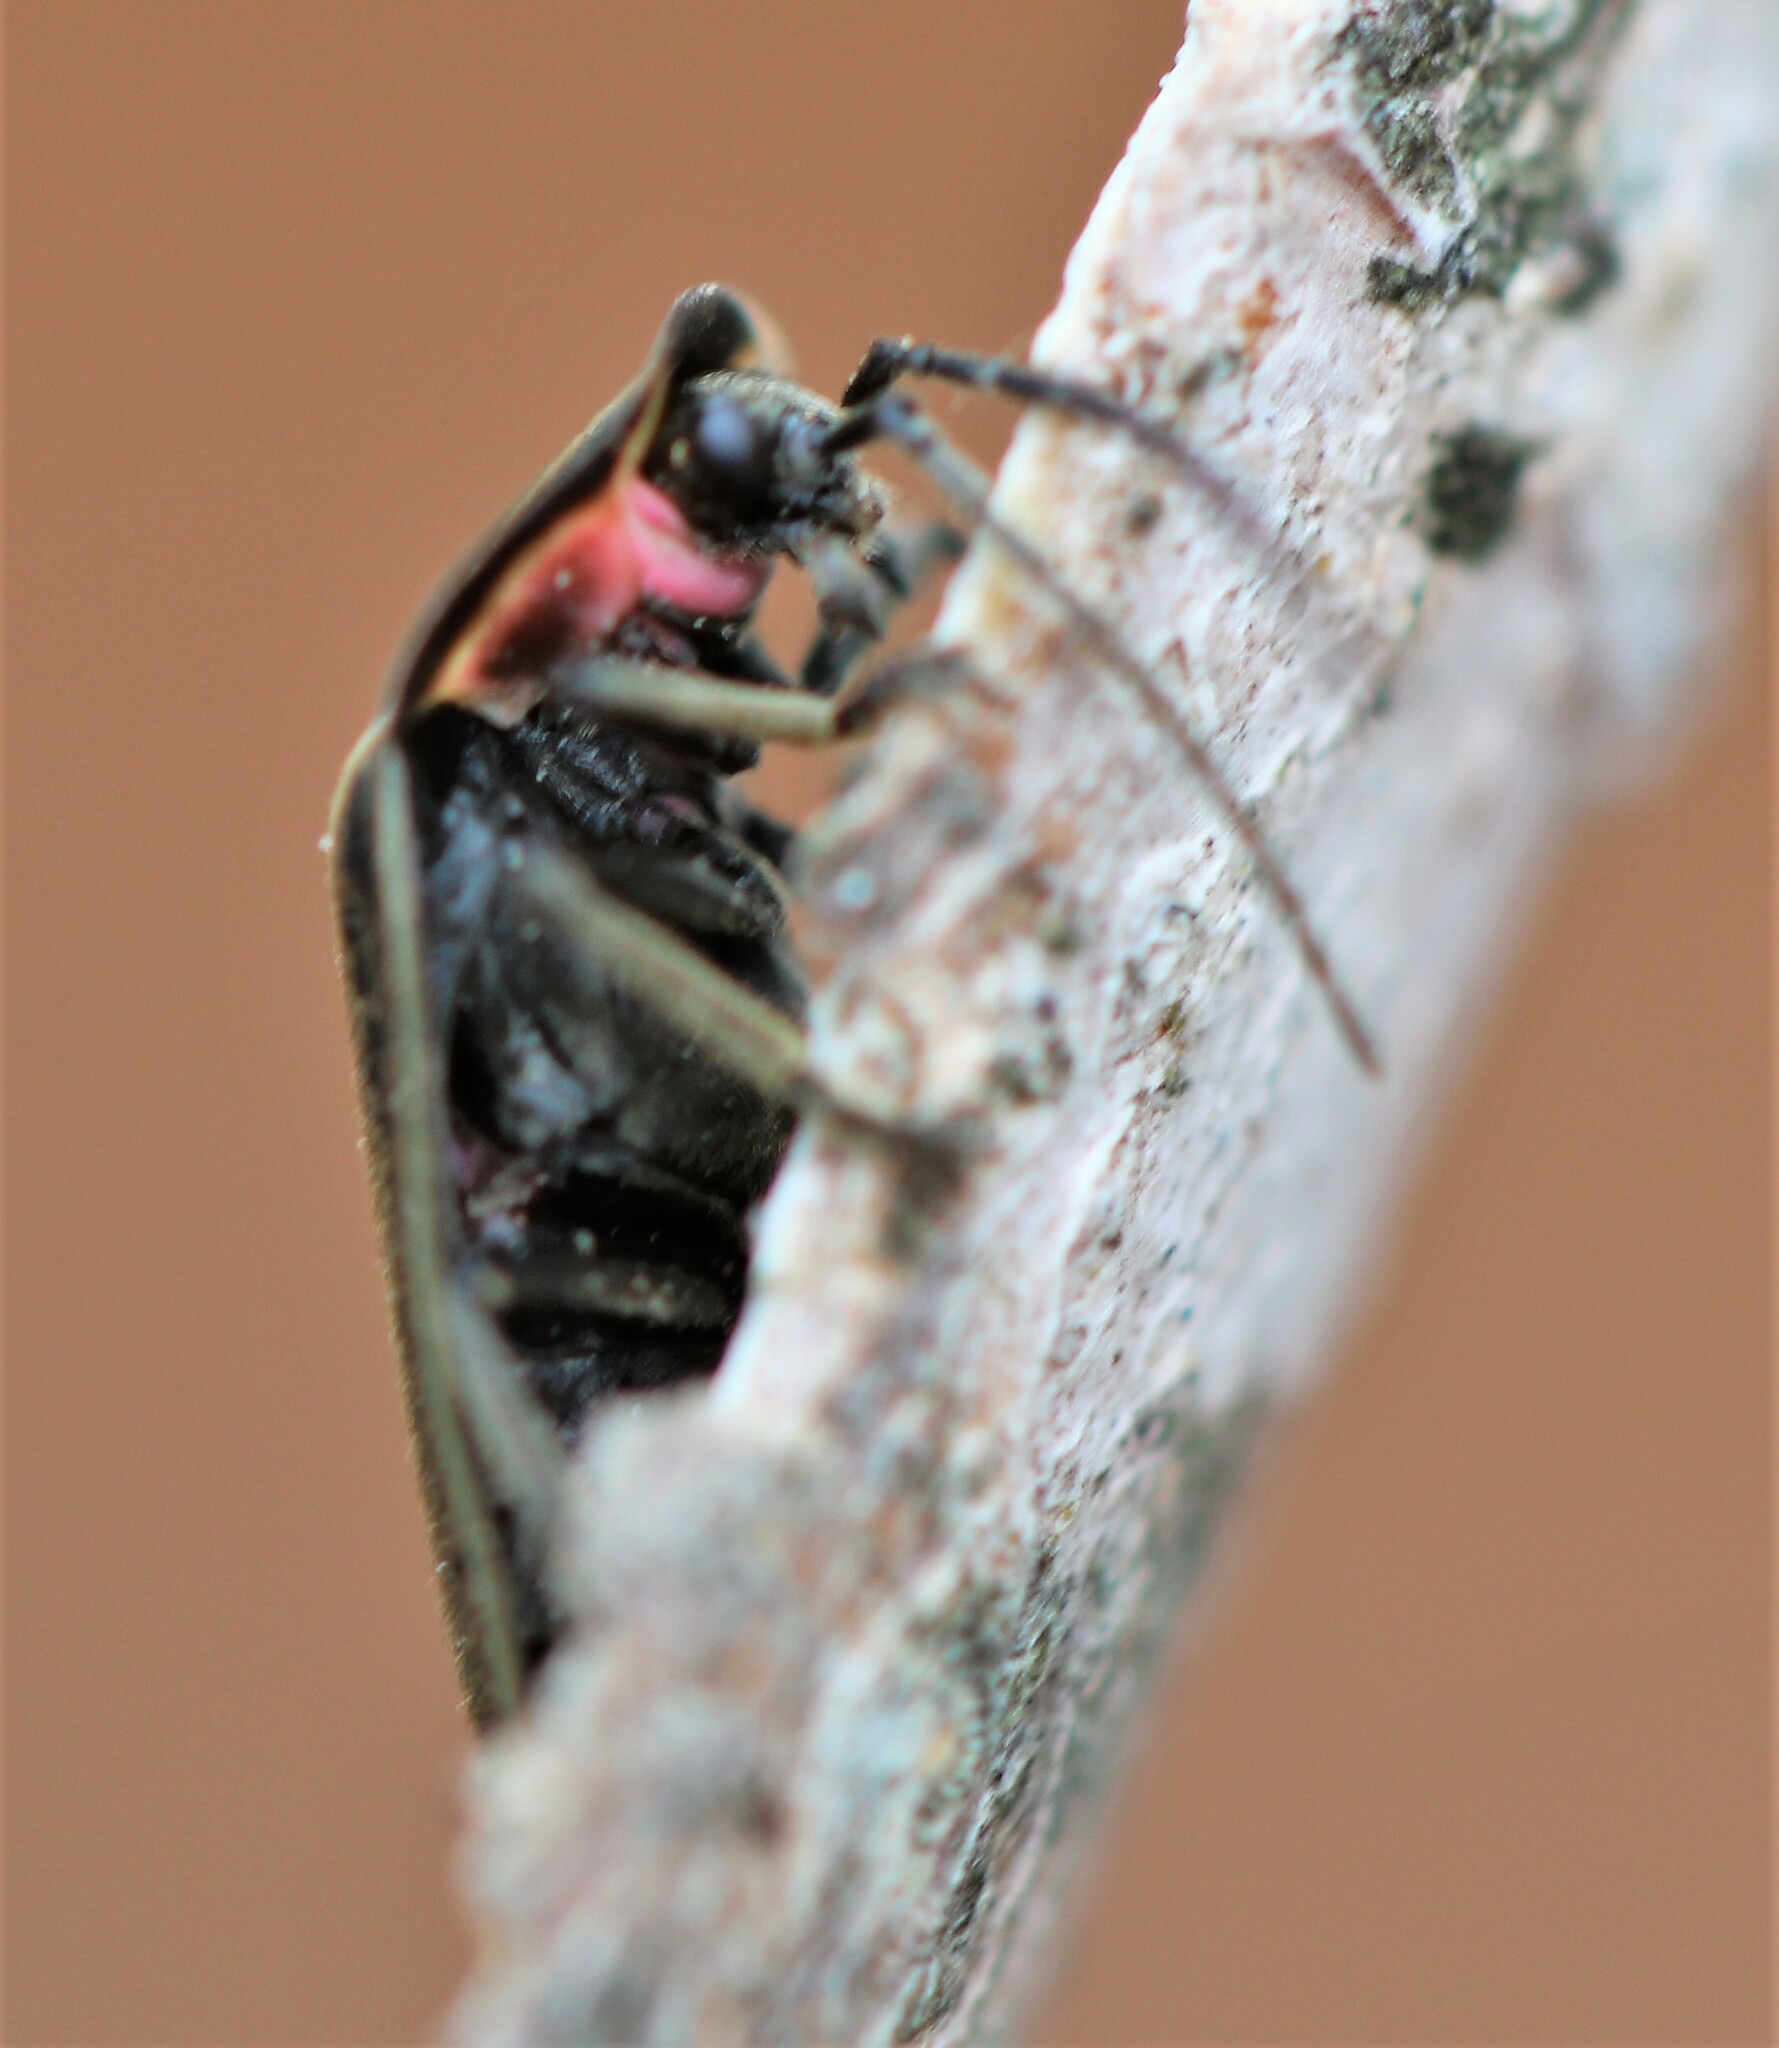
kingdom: Animalia
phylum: Arthropoda
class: Insecta
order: Coleoptera
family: Lampyridae
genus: Photinus
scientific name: Photinus corrusca
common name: Winter firefly
